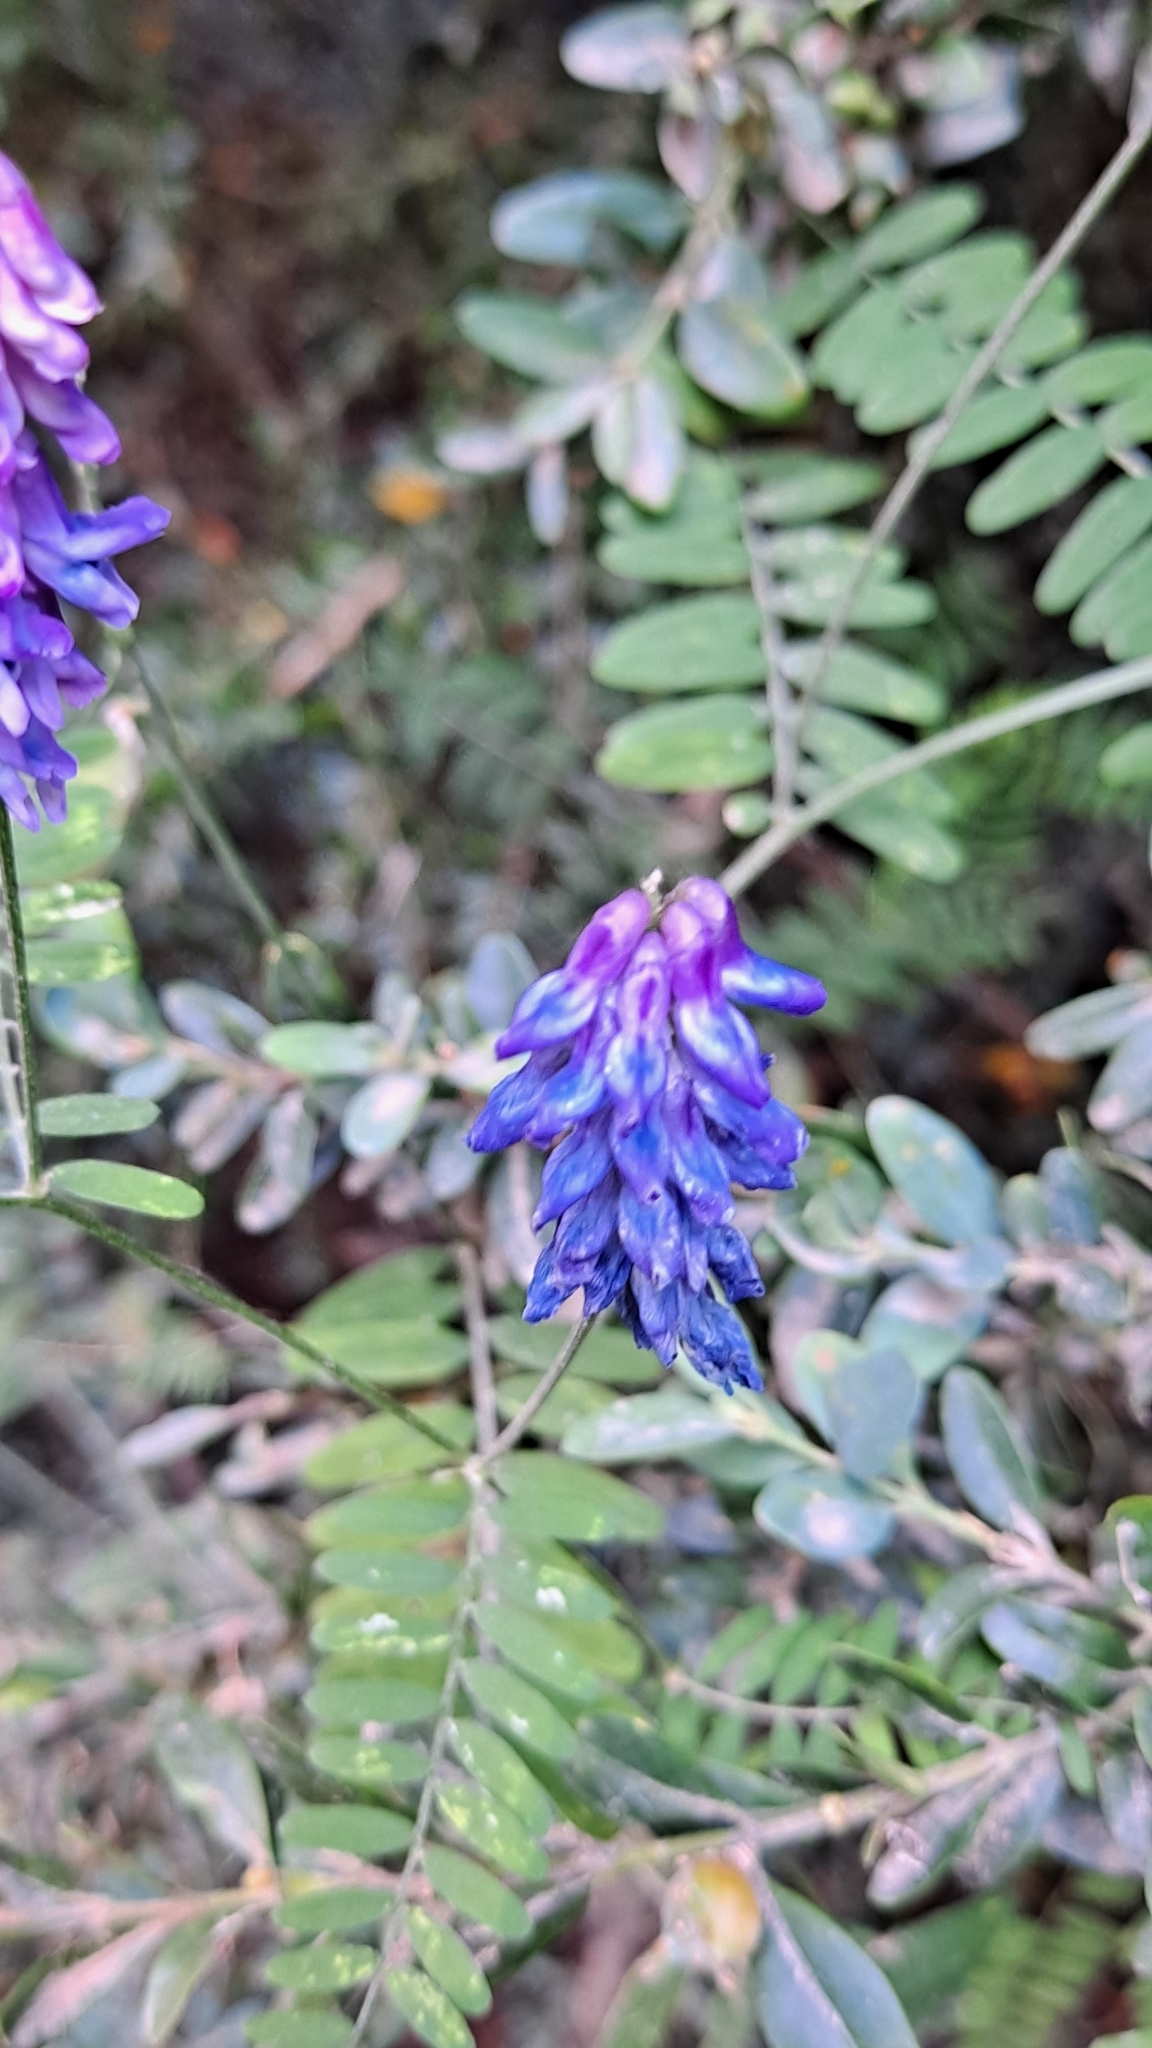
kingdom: Plantae
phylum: Tracheophyta
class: Magnoliopsida
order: Fabales
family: Fabaceae
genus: Vicia
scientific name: Vicia cracca
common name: Bird vetch
